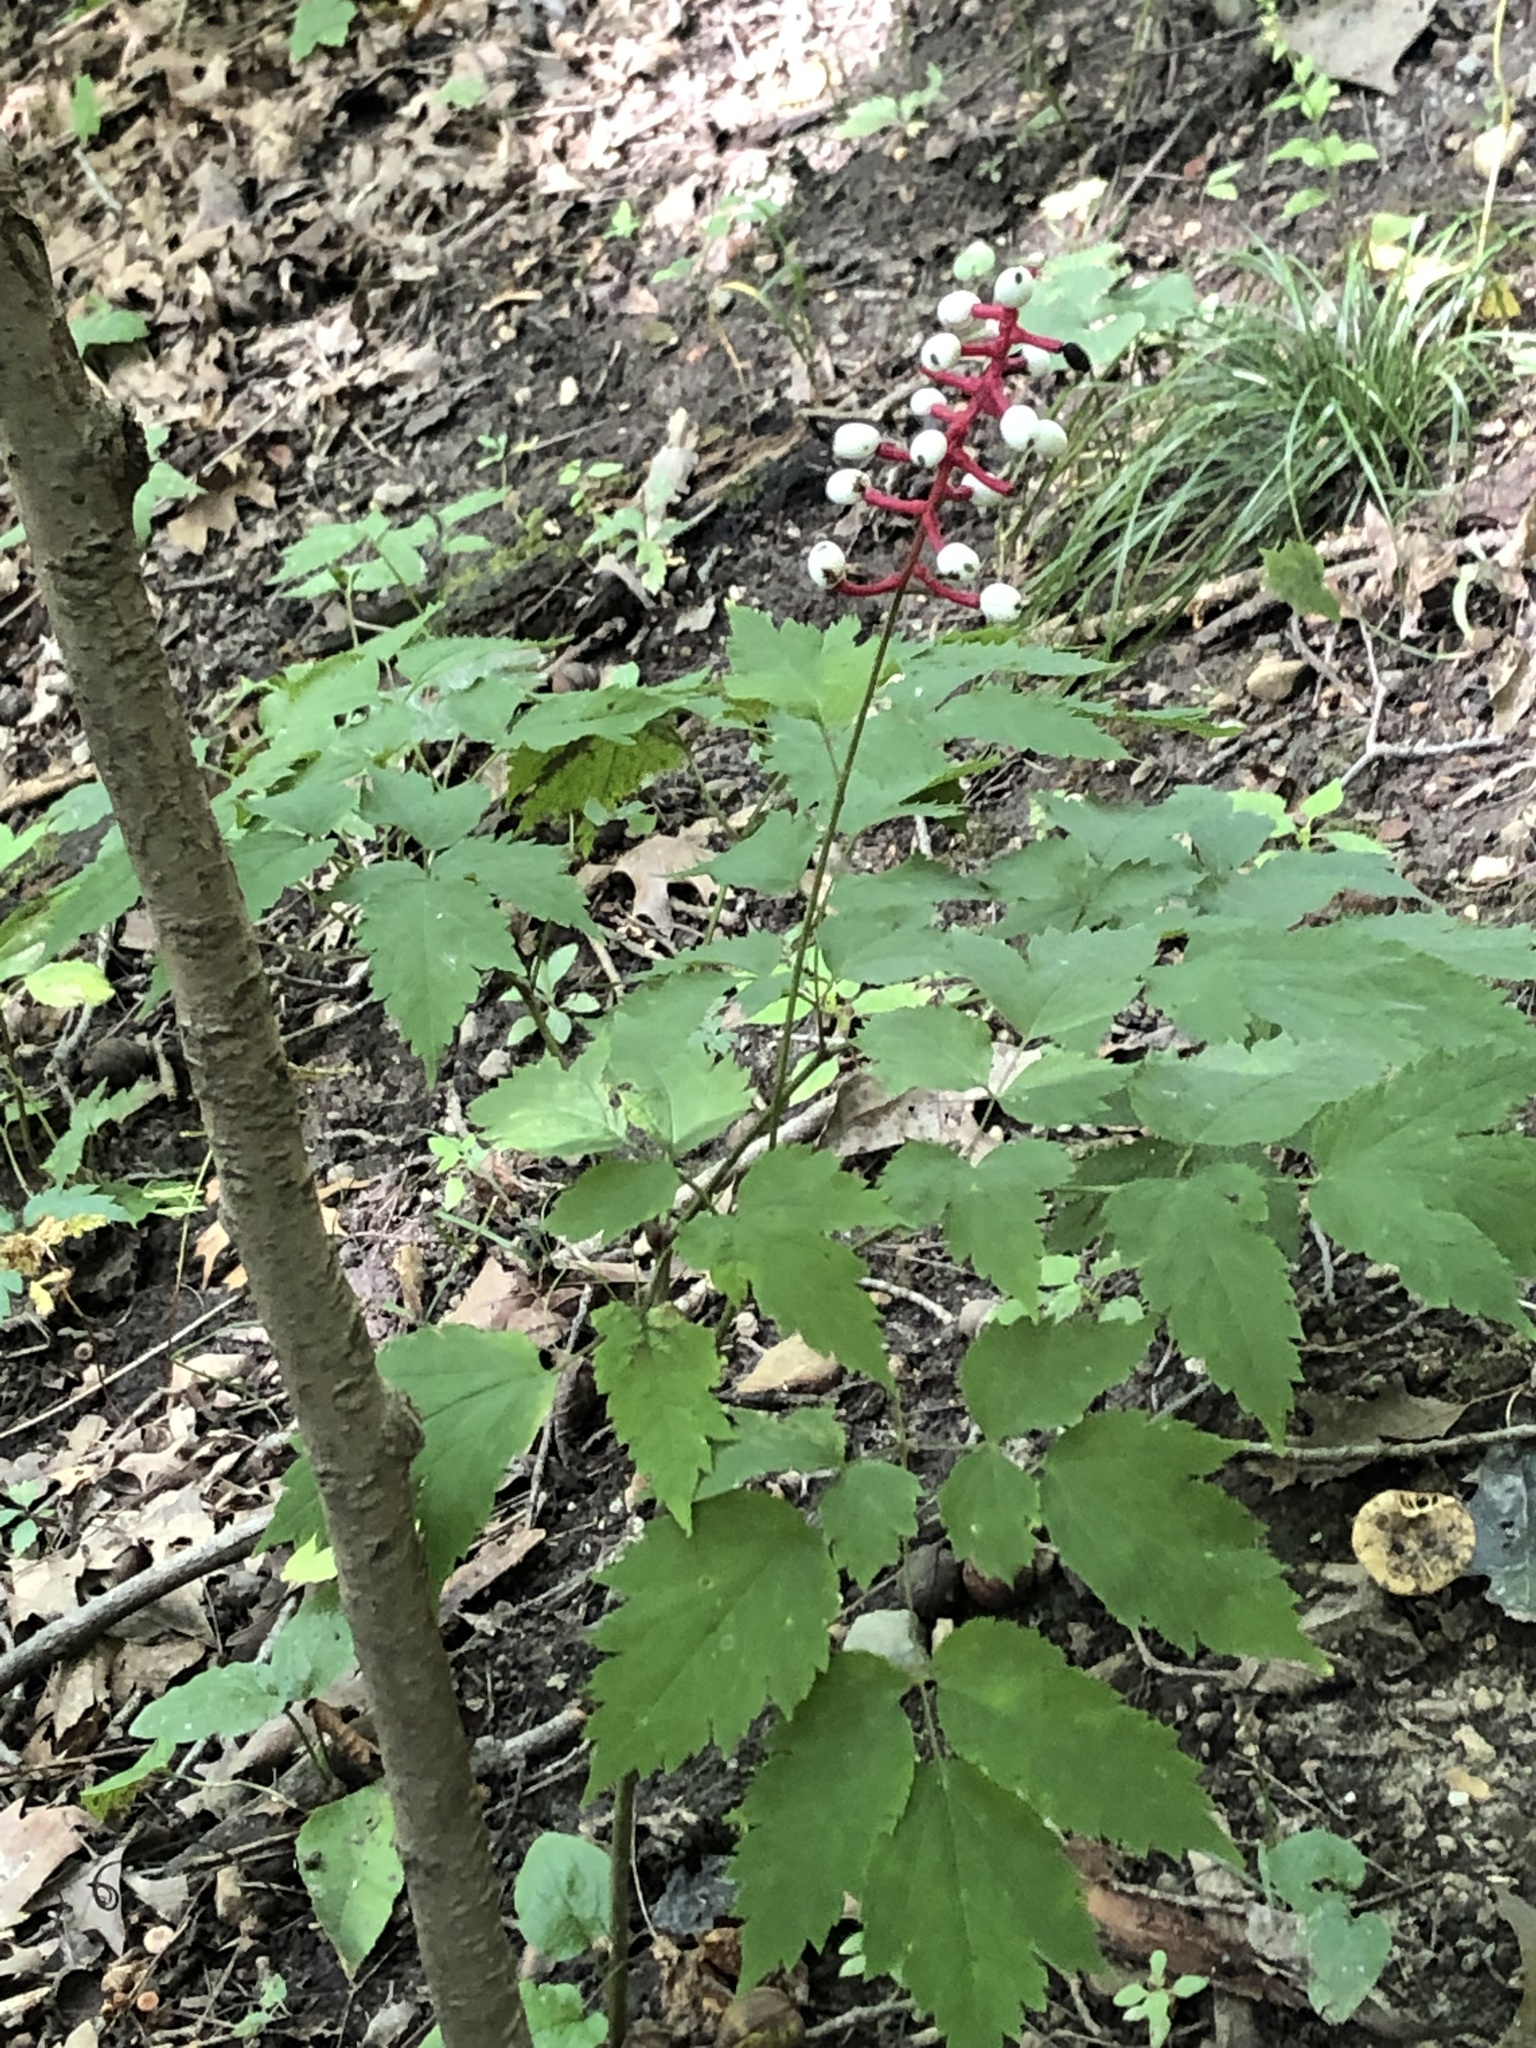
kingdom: Plantae
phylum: Tracheophyta
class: Magnoliopsida
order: Ranunculales
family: Ranunculaceae
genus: Actaea
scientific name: Actaea pachypoda
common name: Doll's-eyes
